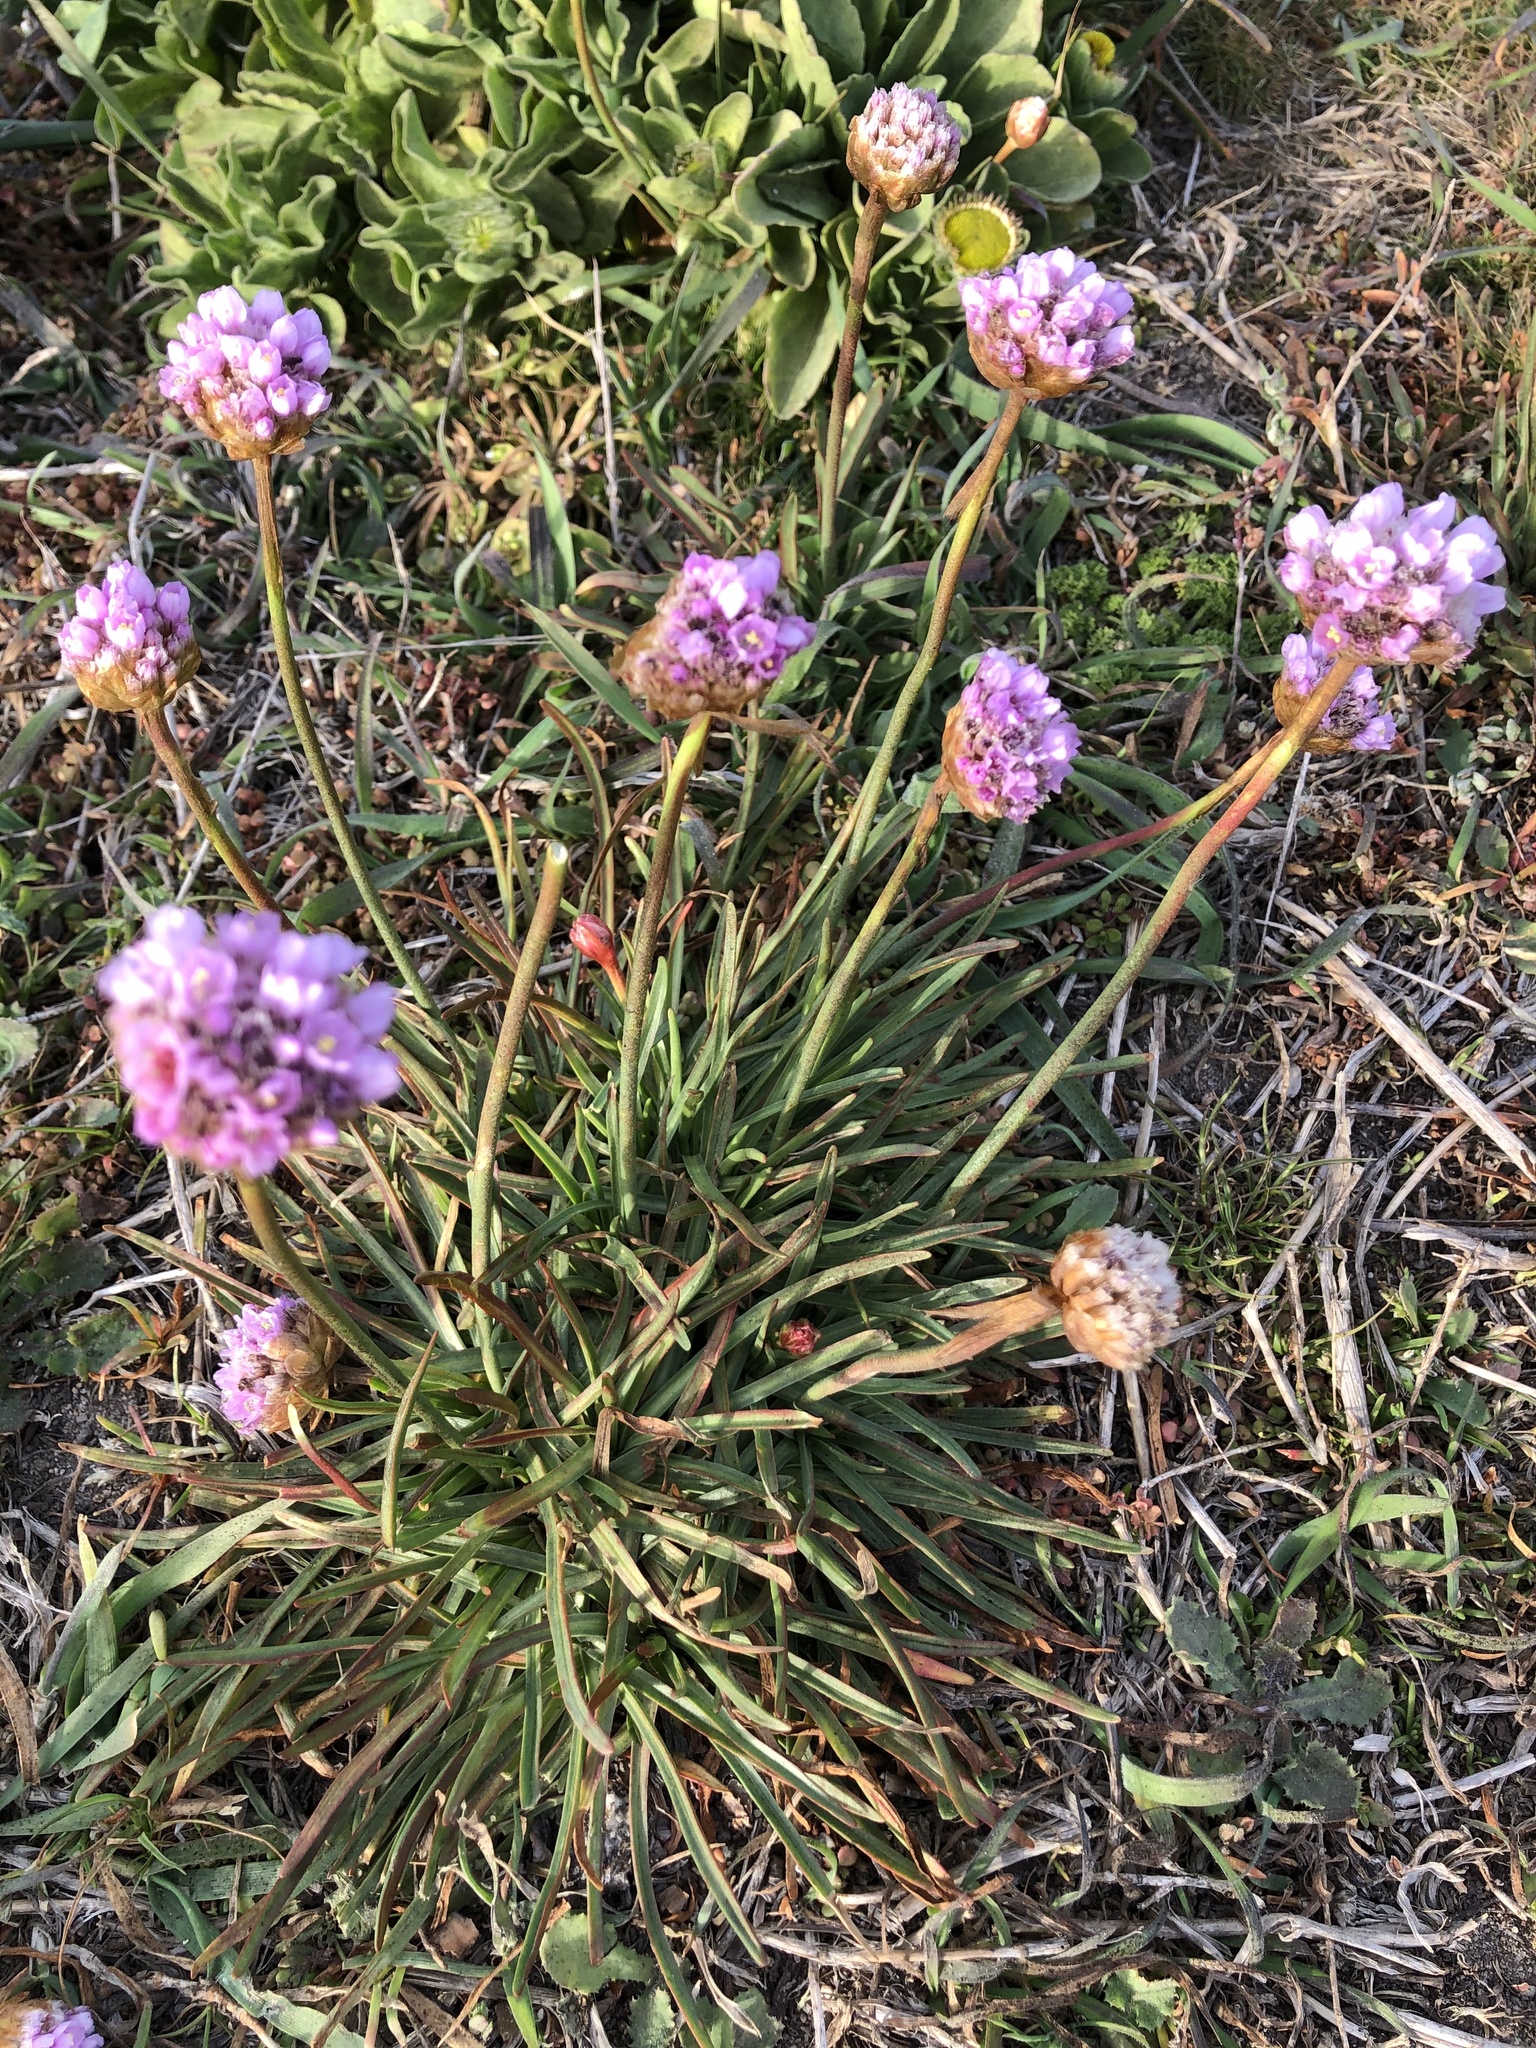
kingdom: Plantae
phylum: Tracheophyta
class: Magnoliopsida
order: Caryophyllales
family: Plumbaginaceae
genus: Armeria
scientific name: Armeria maritima
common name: Thrift
